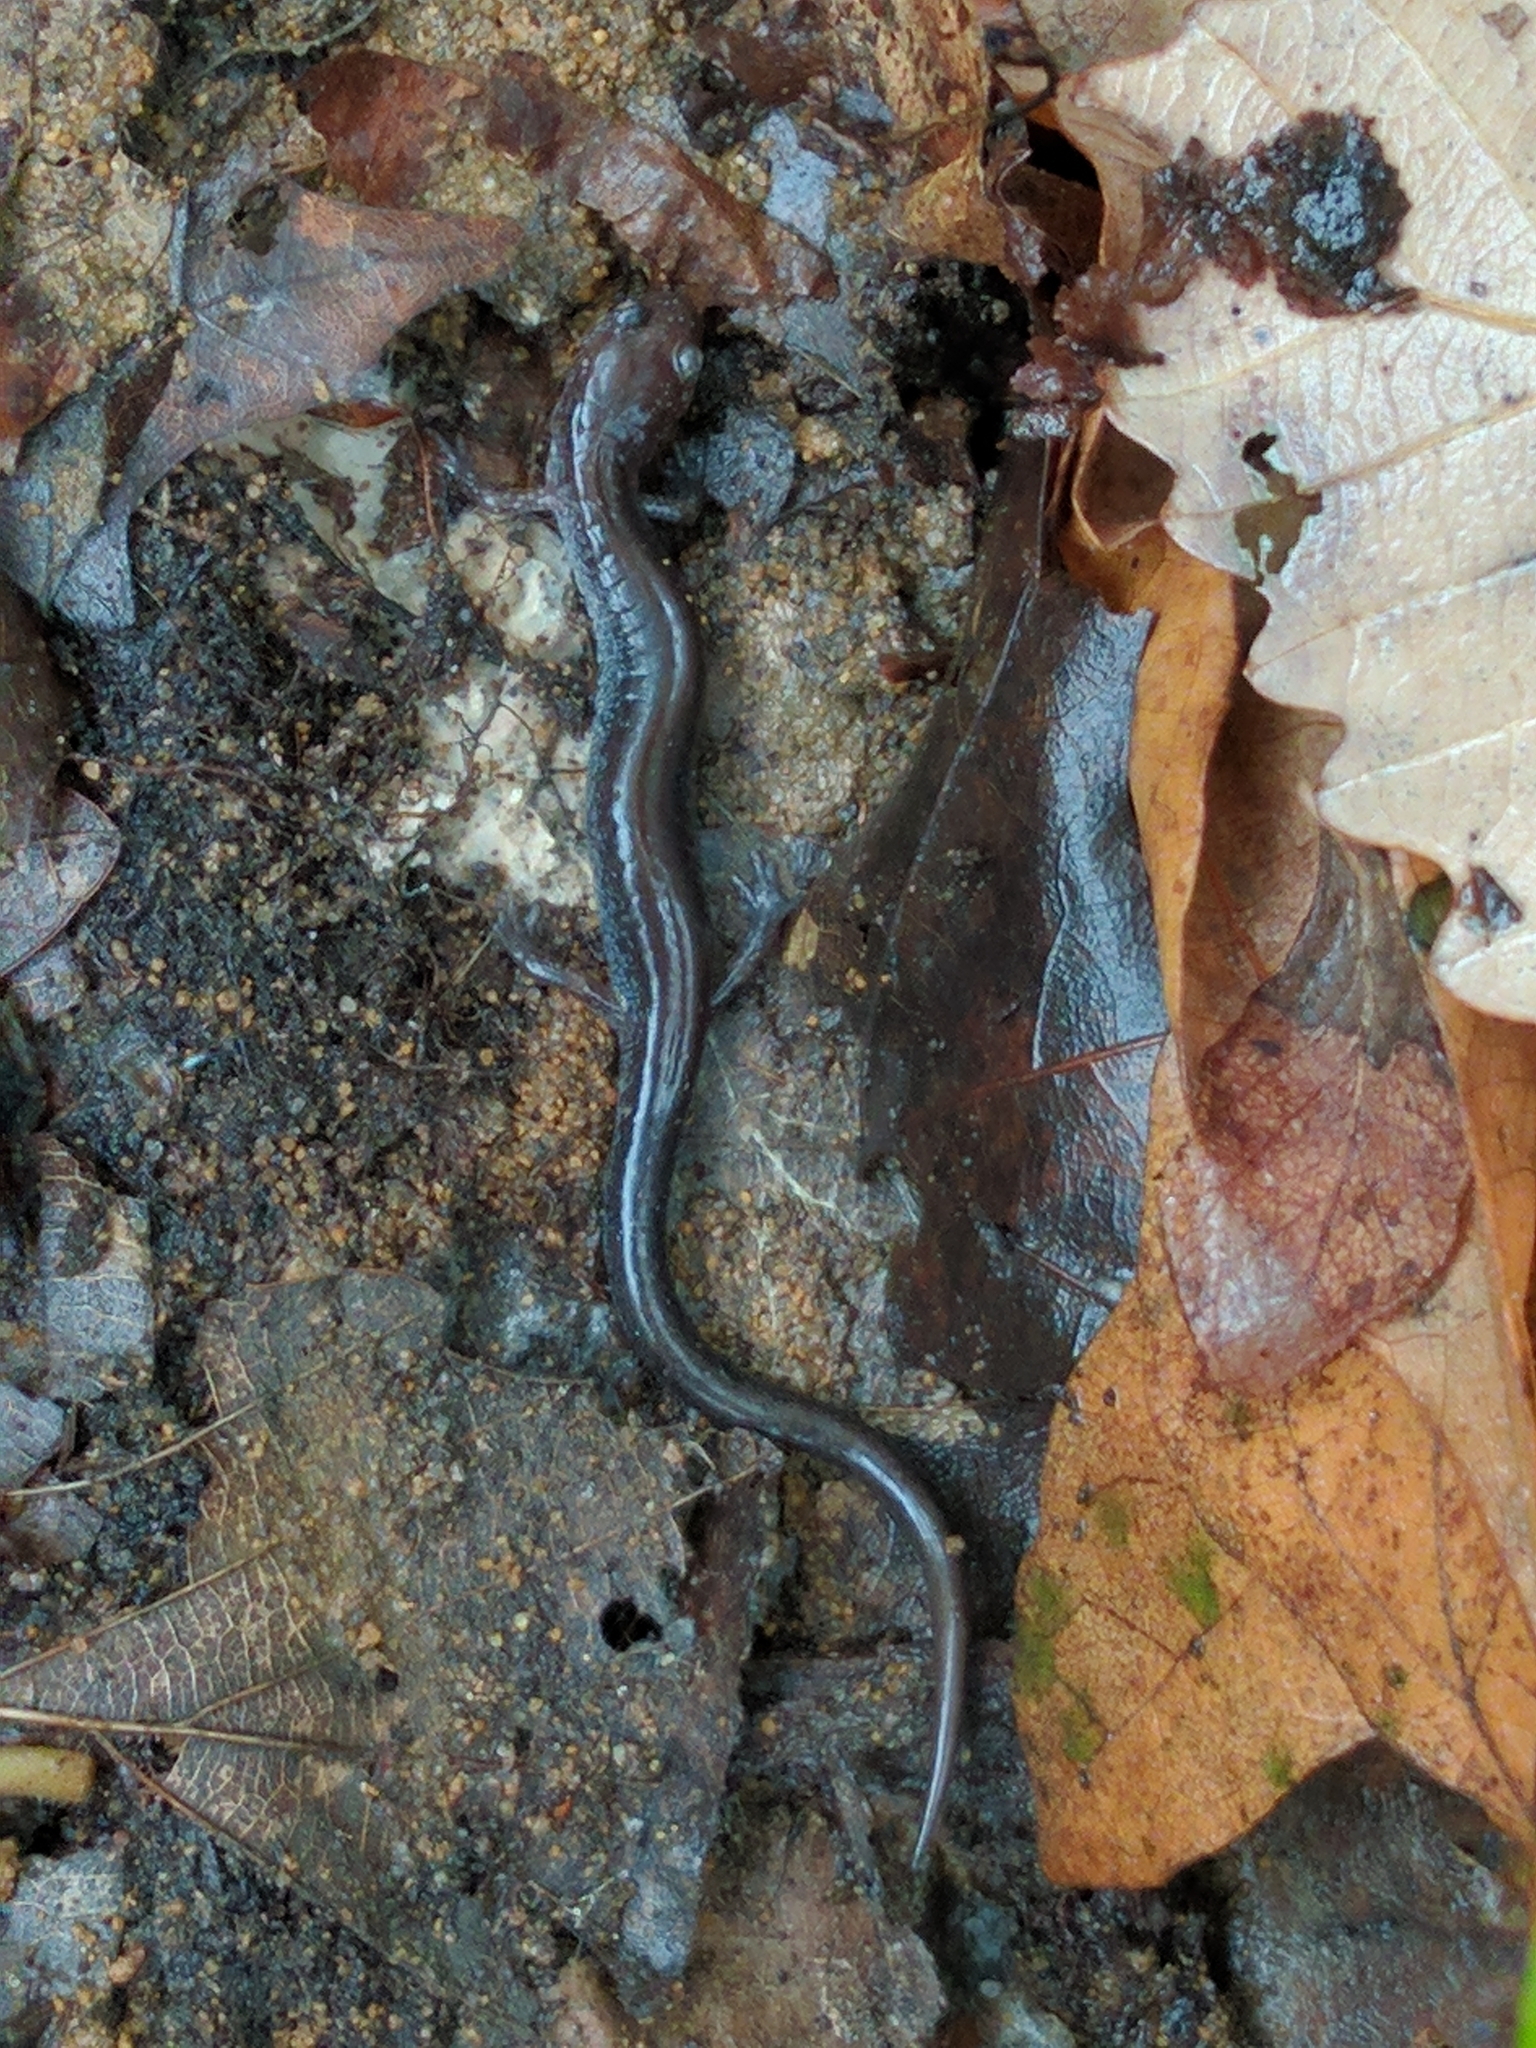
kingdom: Animalia
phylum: Chordata
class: Amphibia
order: Caudata
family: Plethodontidae
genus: Plethodon
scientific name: Plethodon cinereus
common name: Redback salamander
